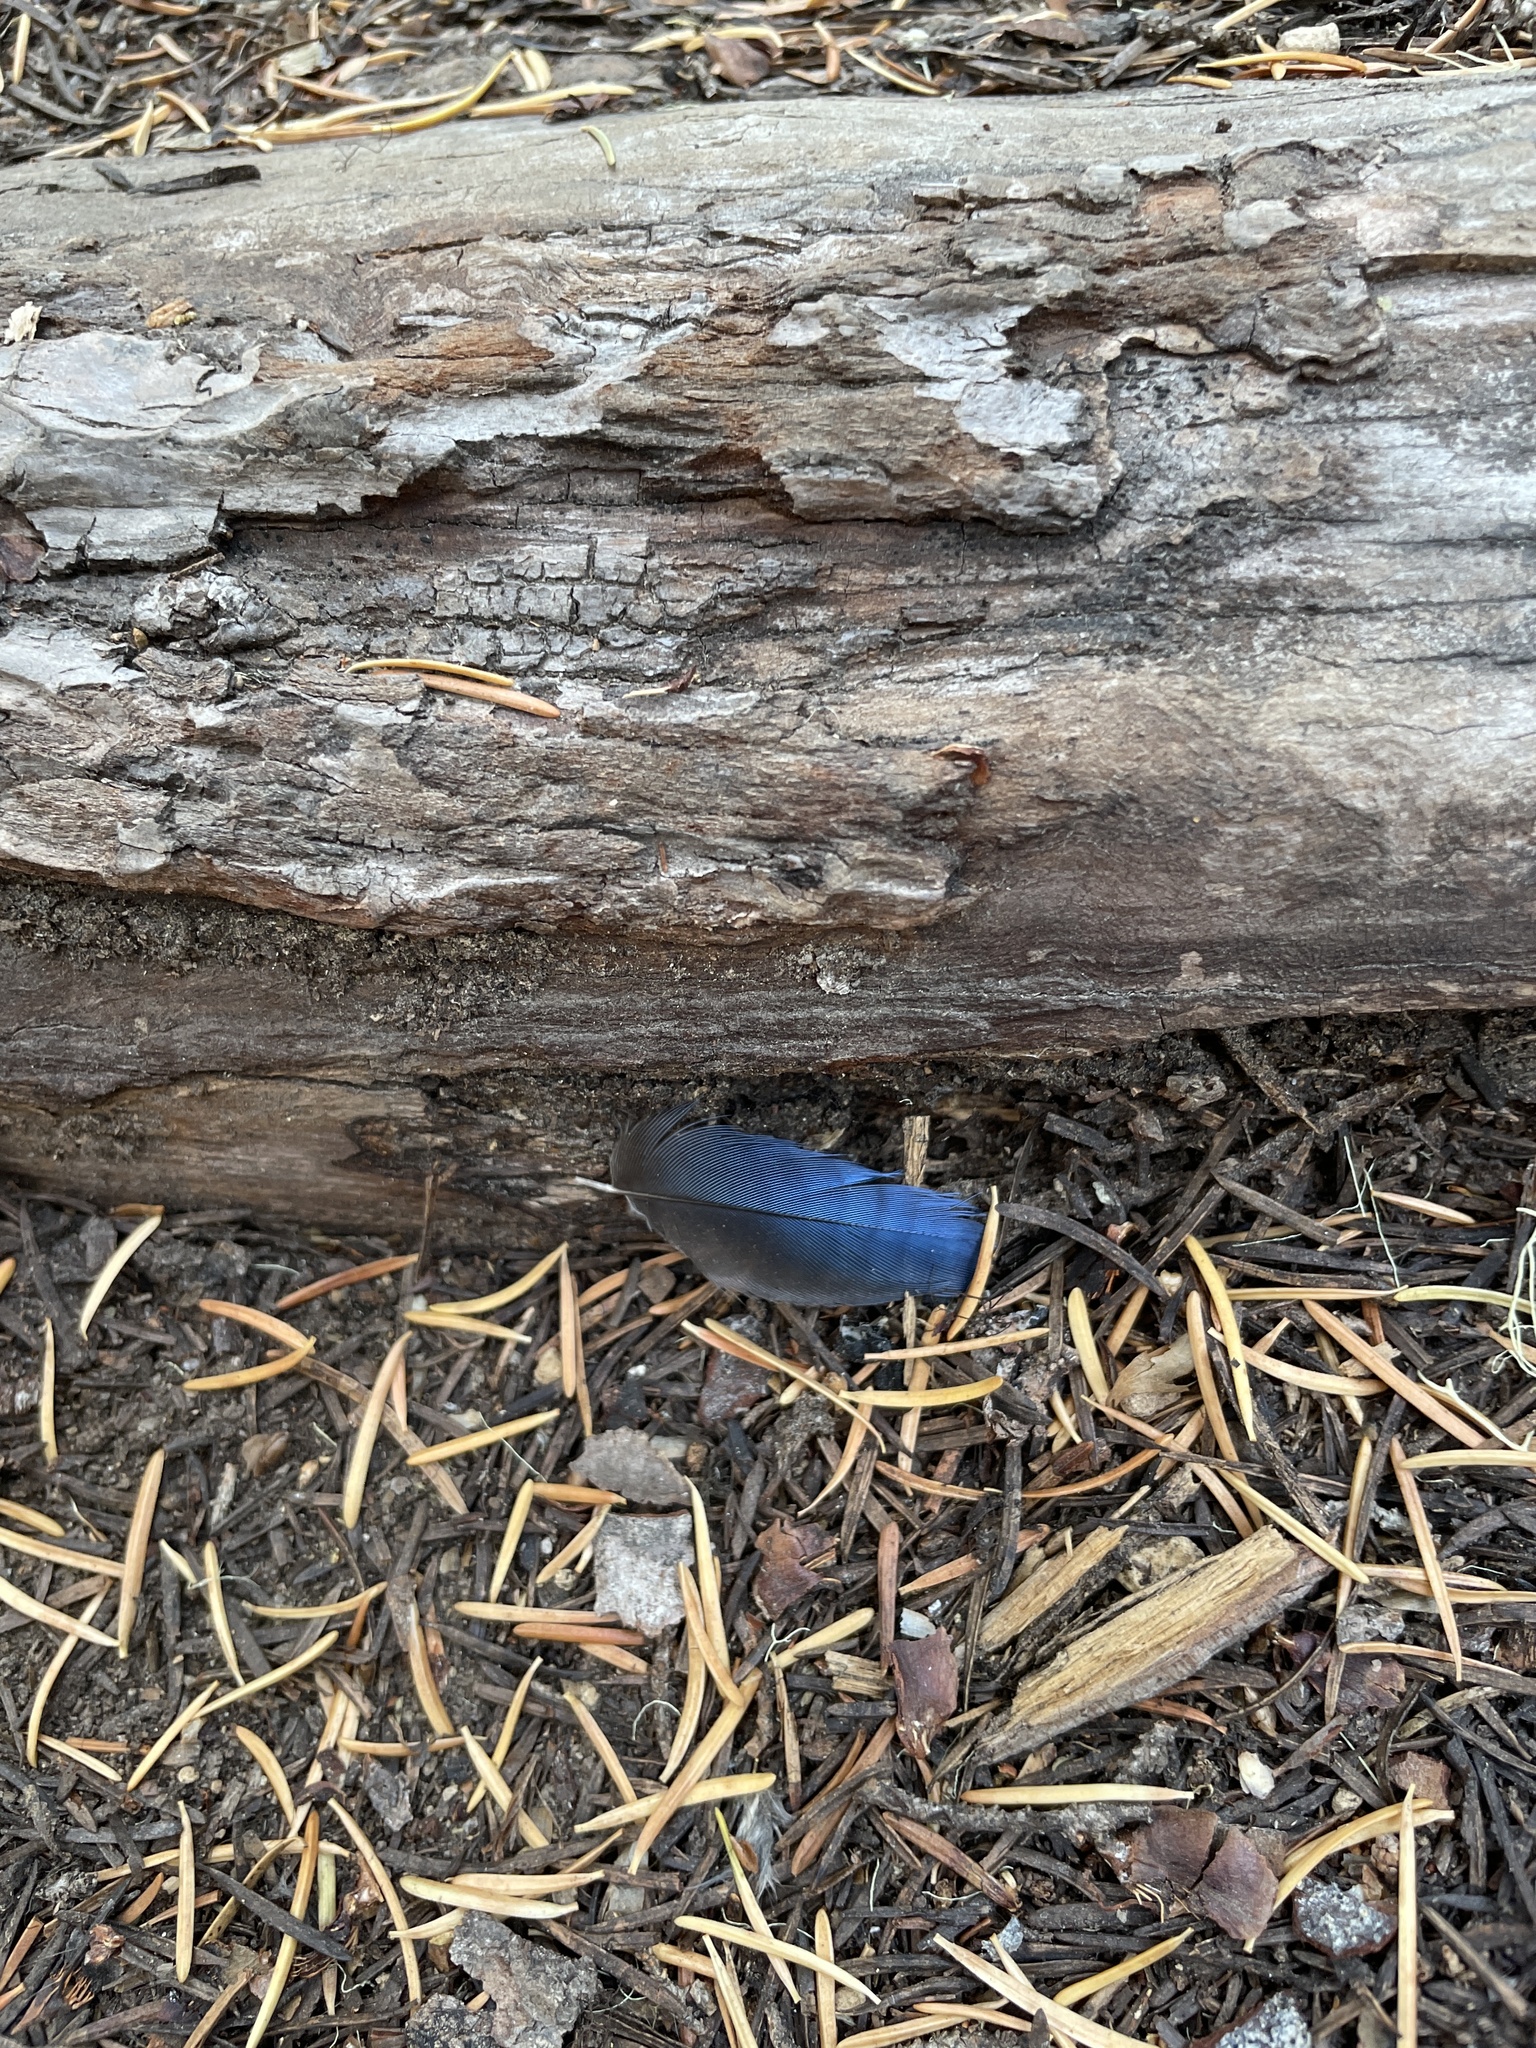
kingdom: Animalia
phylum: Chordata
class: Aves
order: Passeriformes
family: Corvidae
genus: Cyanocitta
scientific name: Cyanocitta stelleri
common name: Steller's jay
